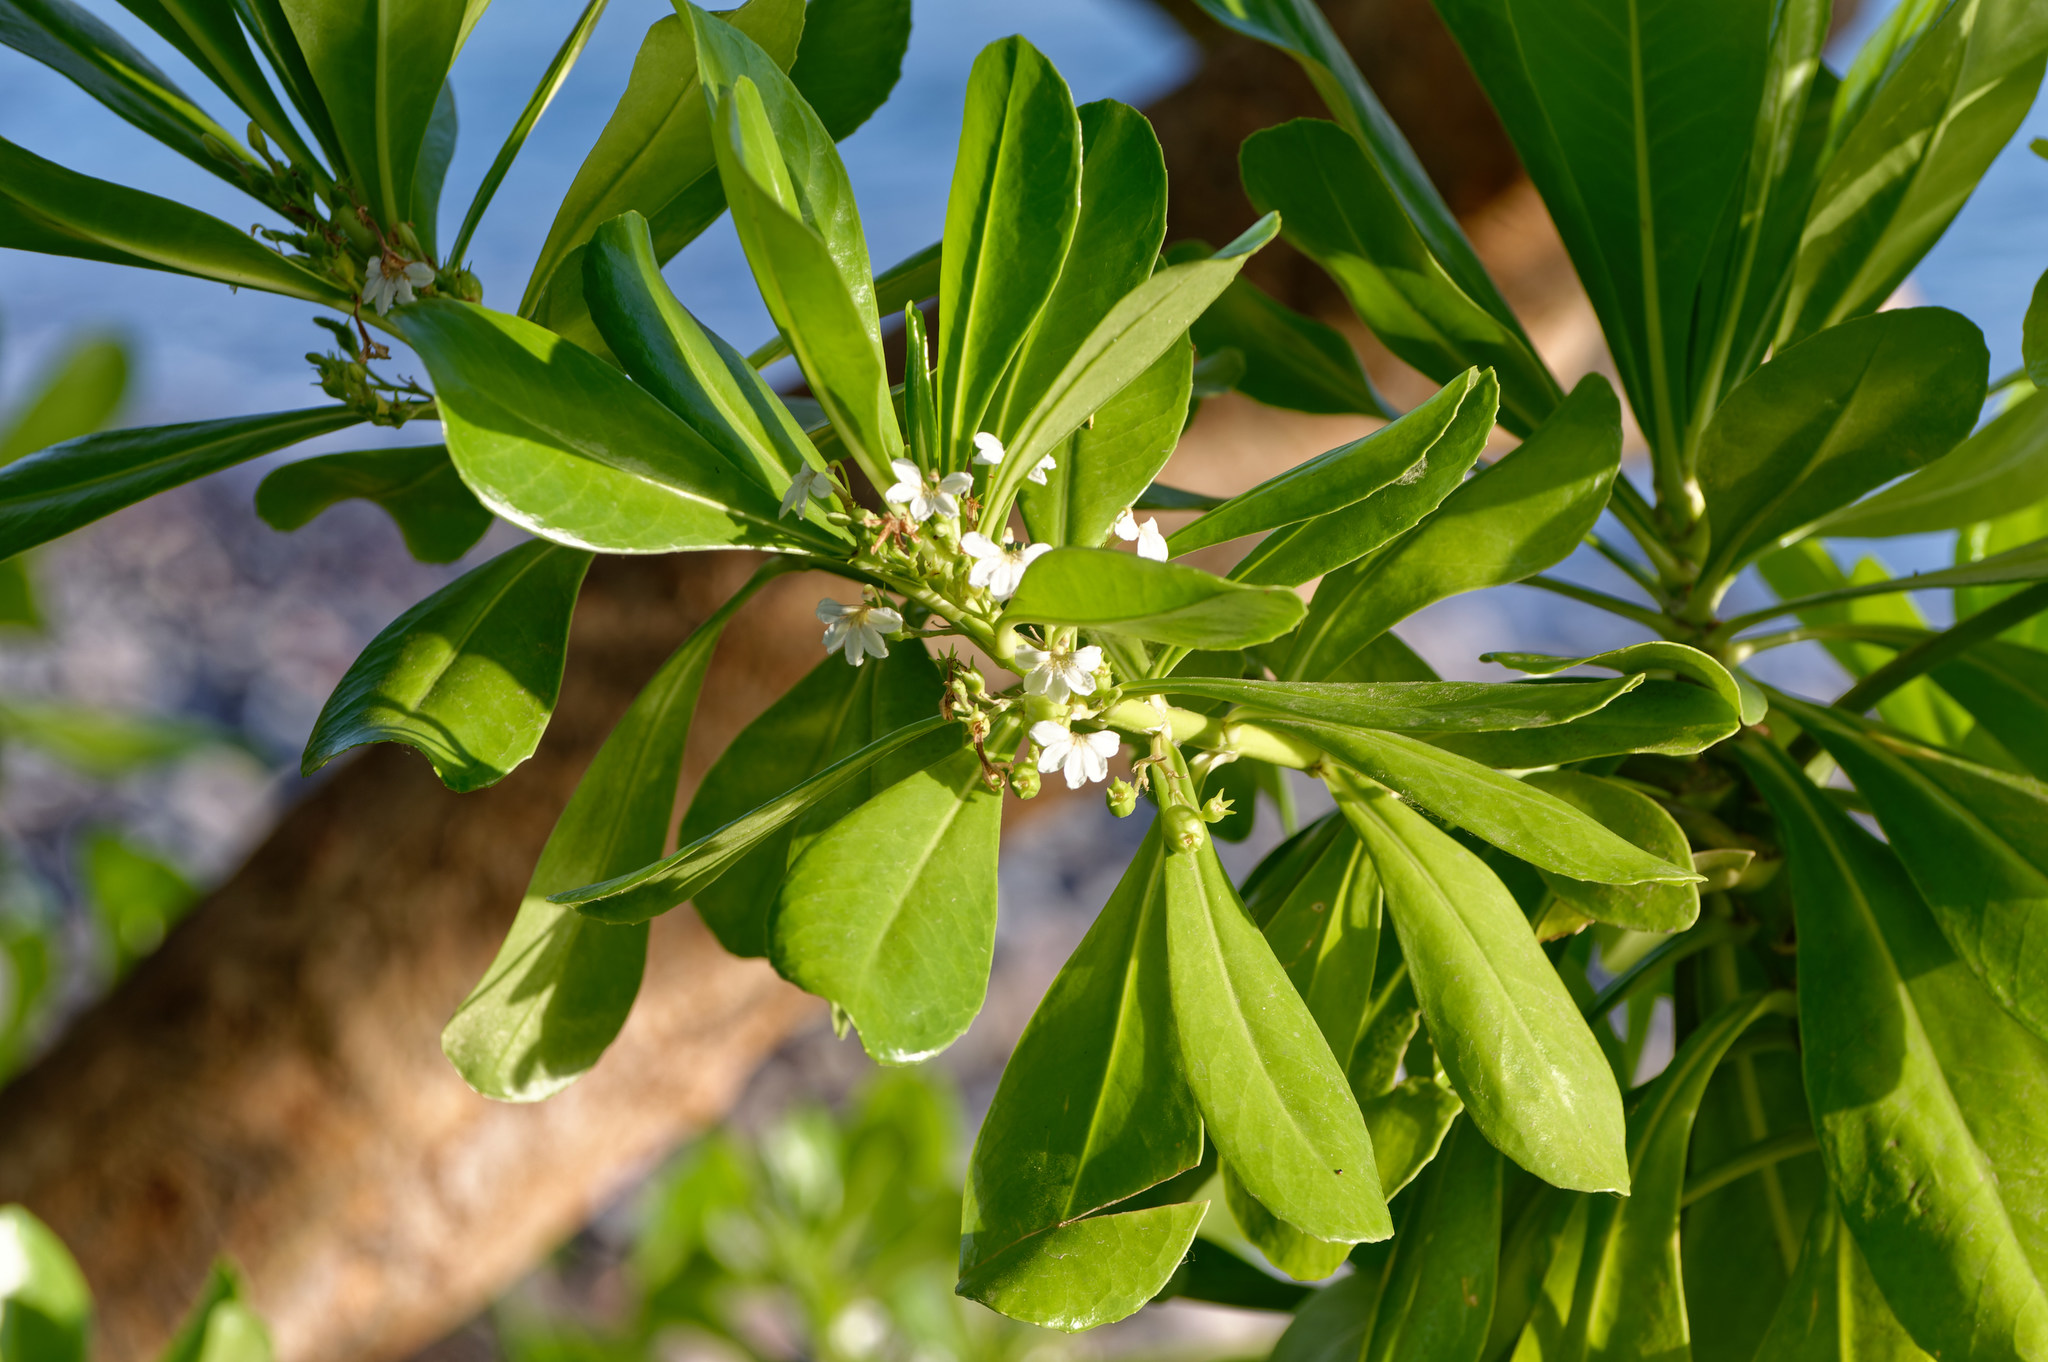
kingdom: Plantae
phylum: Tracheophyta
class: Magnoliopsida
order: Asterales
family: Goodeniaceae
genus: Scaevola
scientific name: Scaevola taccada
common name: Sea lettucetree
